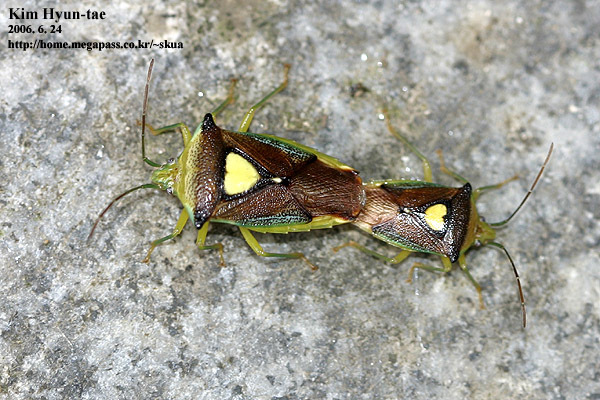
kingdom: Animalia
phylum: Arthropoda
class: Insecta
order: Hemiptera
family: Acanthosomatidae
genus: Sastragala
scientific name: Sastragala esakii
